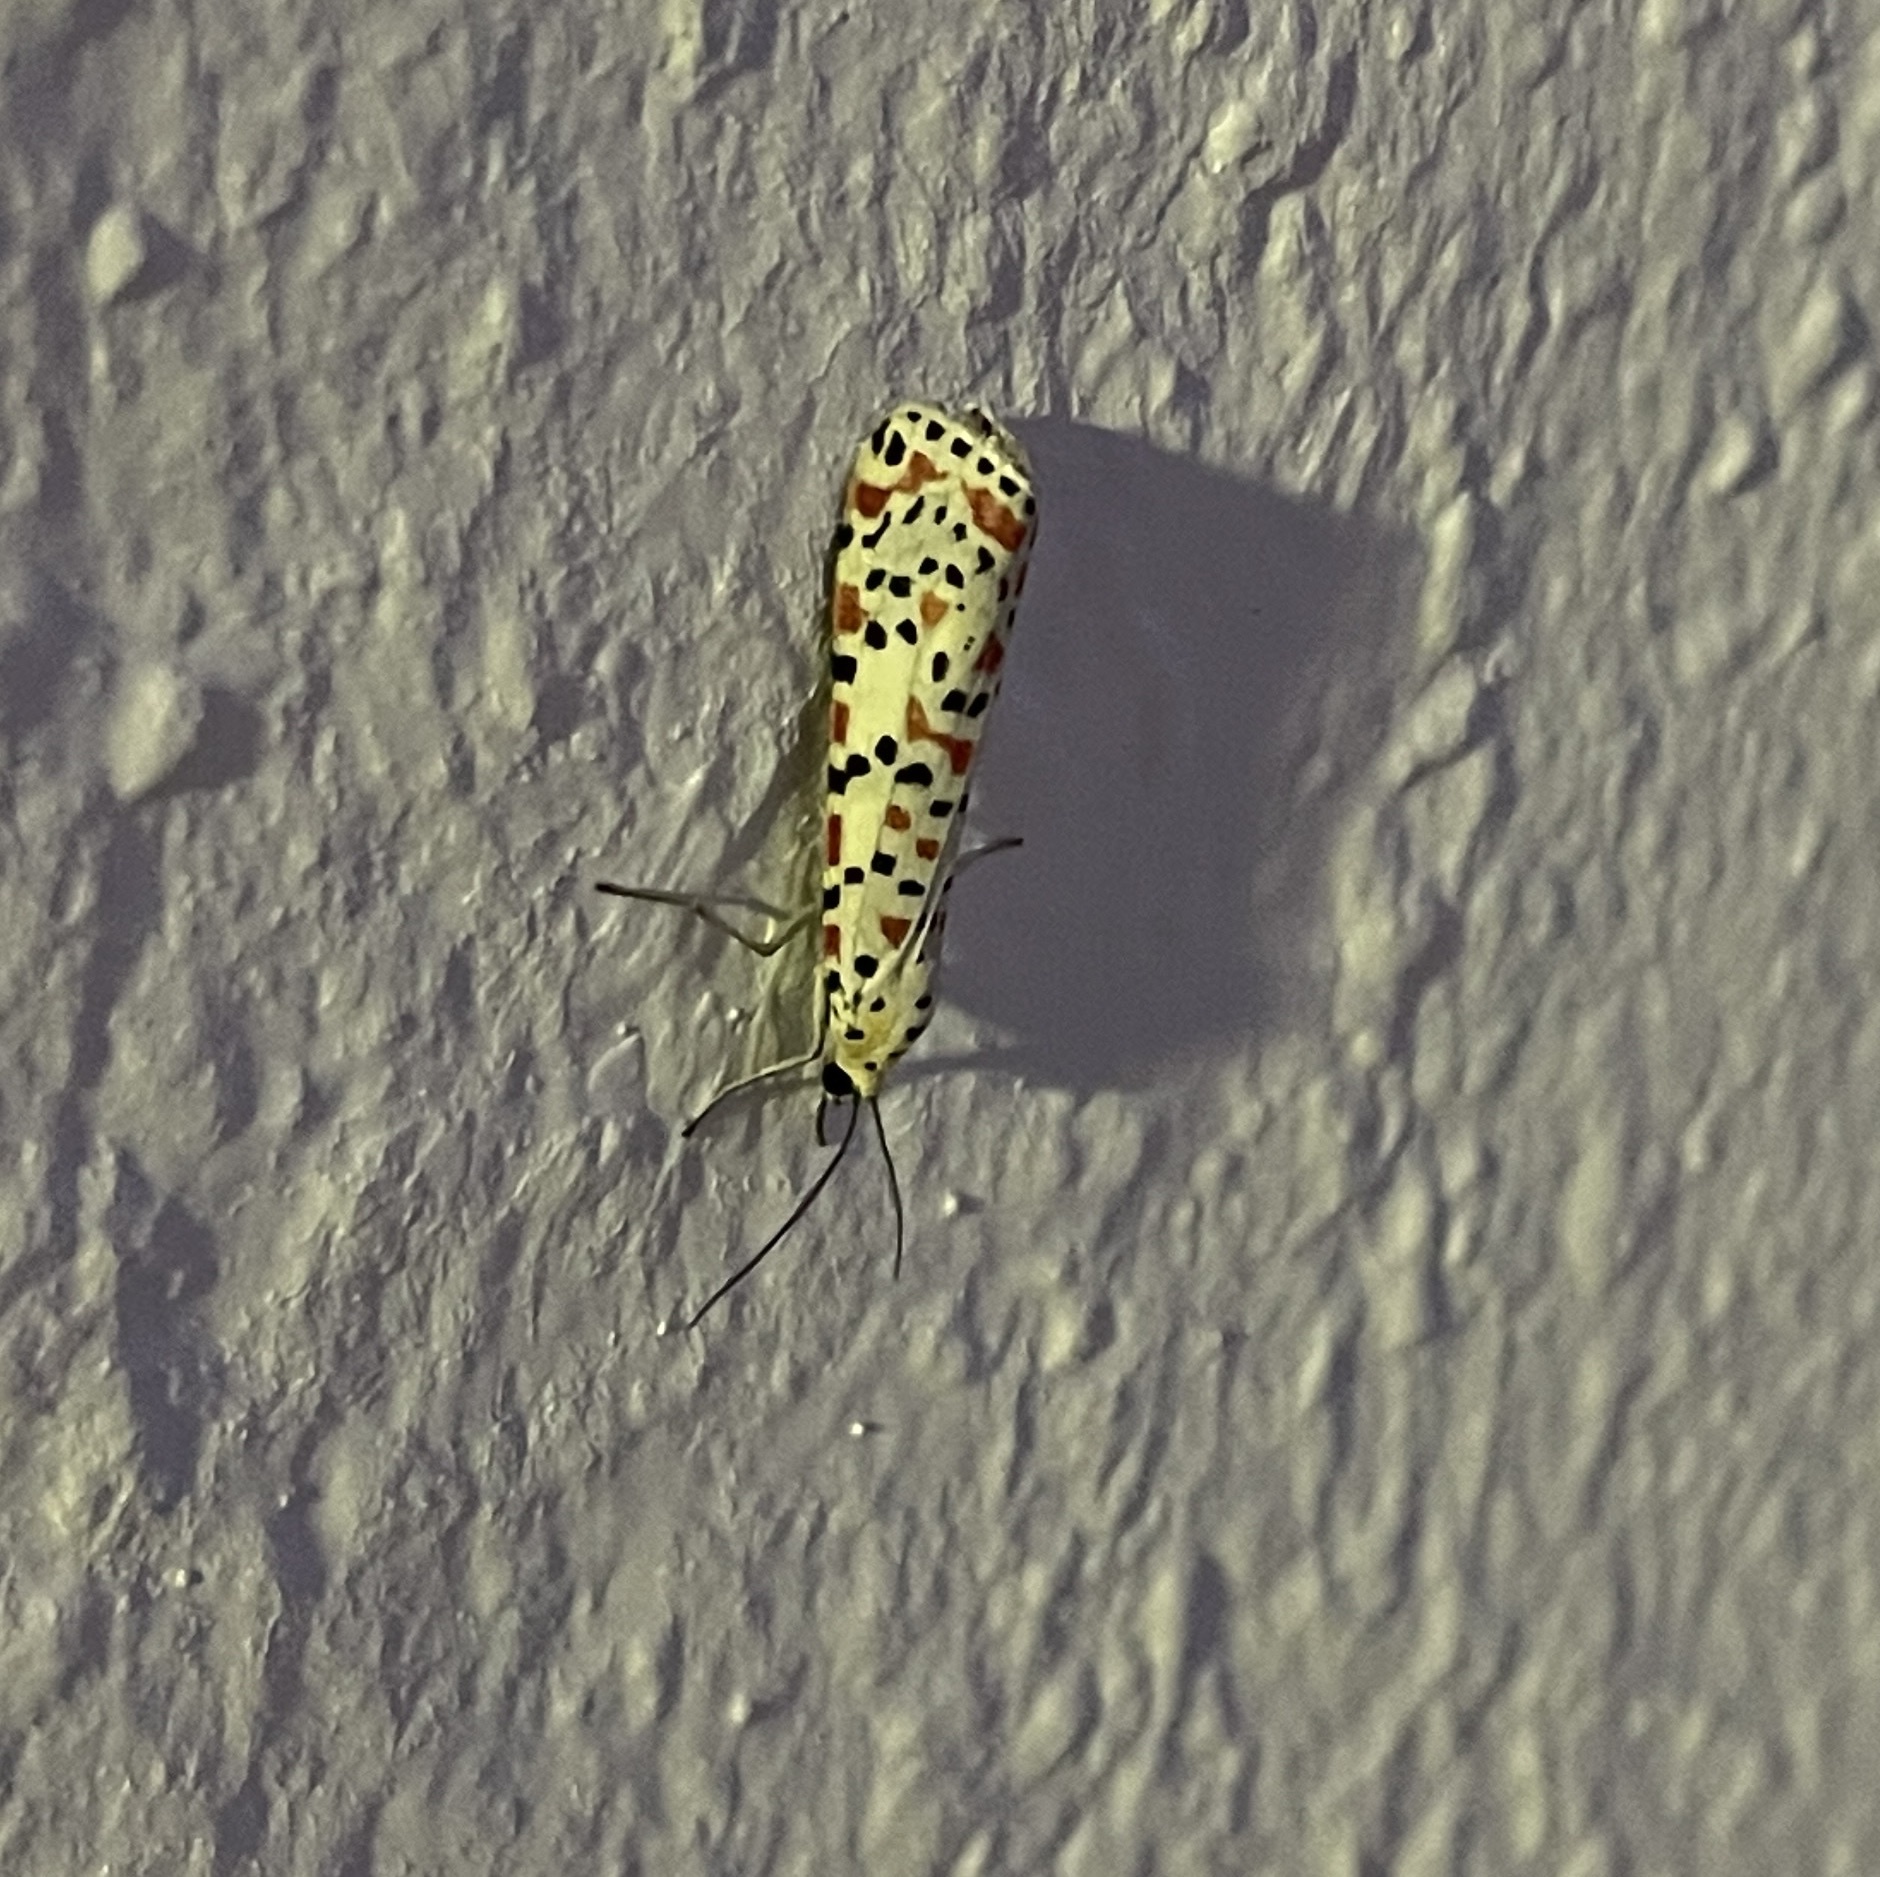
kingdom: Animalia
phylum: Arthropoda
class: Insecta
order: Lepidoptera
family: Erebidae
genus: Utetheisa
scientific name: Utetheisa pulchella
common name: Crimson speckled
